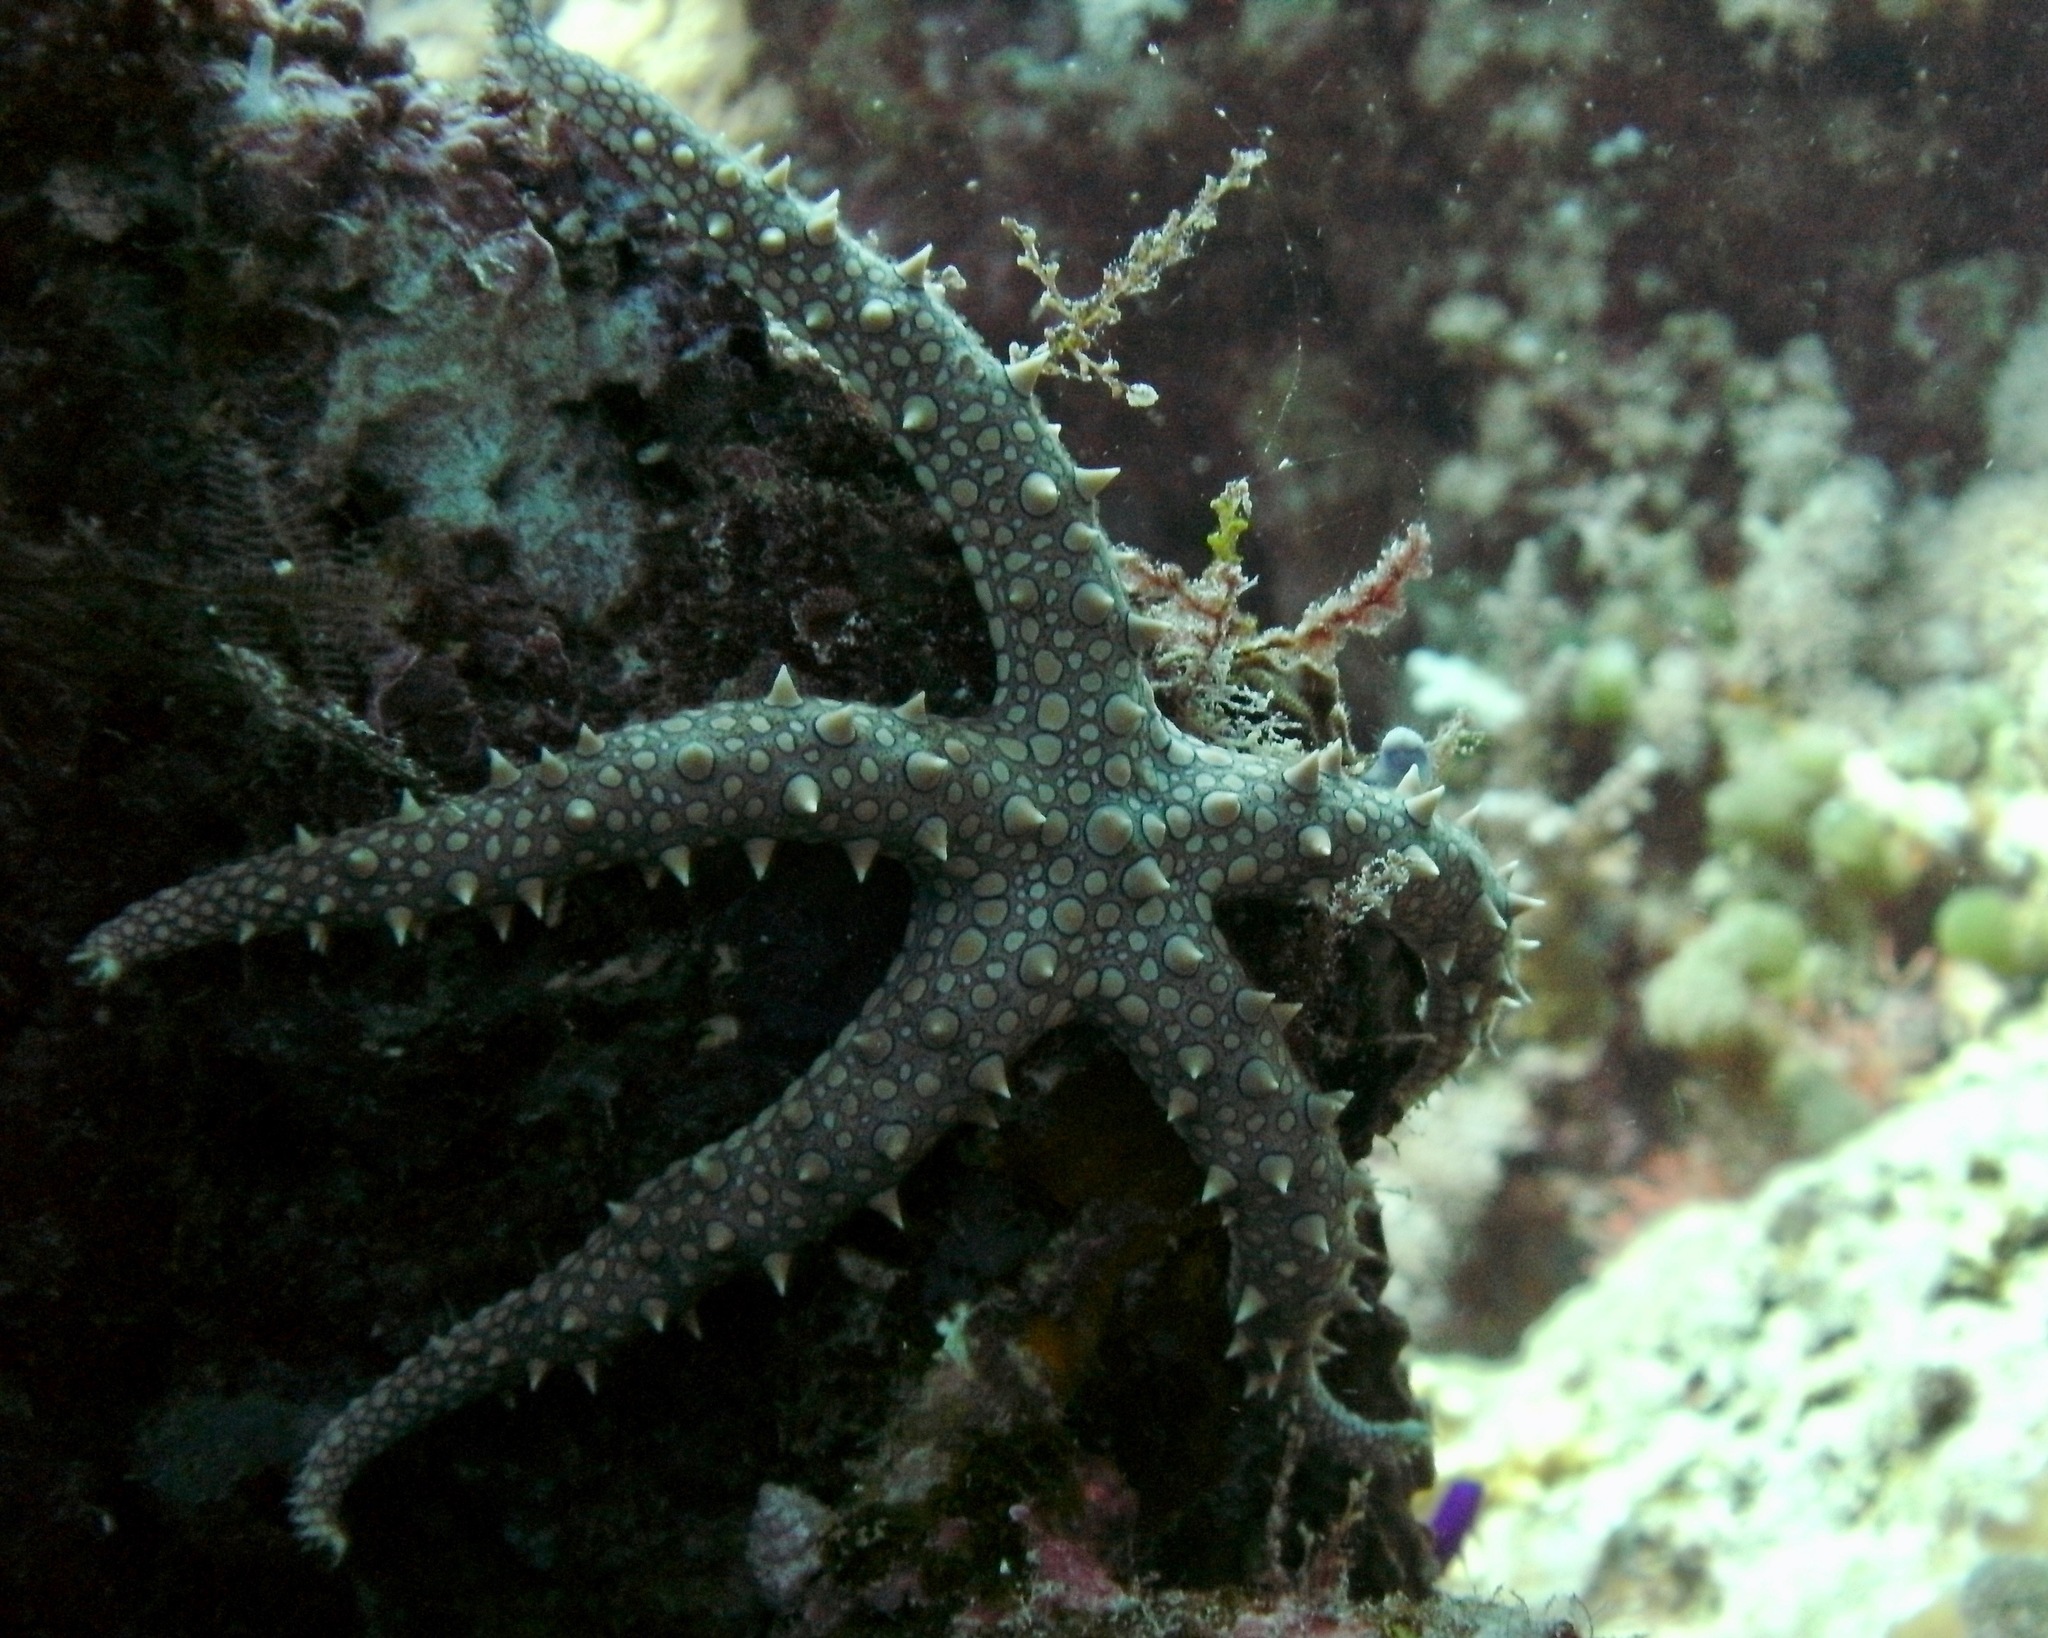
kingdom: Animalia
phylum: Echinodermata
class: Asteroidea
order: Valvatida
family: Ophidiasteridae
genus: Gomophia
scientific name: Gomophia egyptiaca
